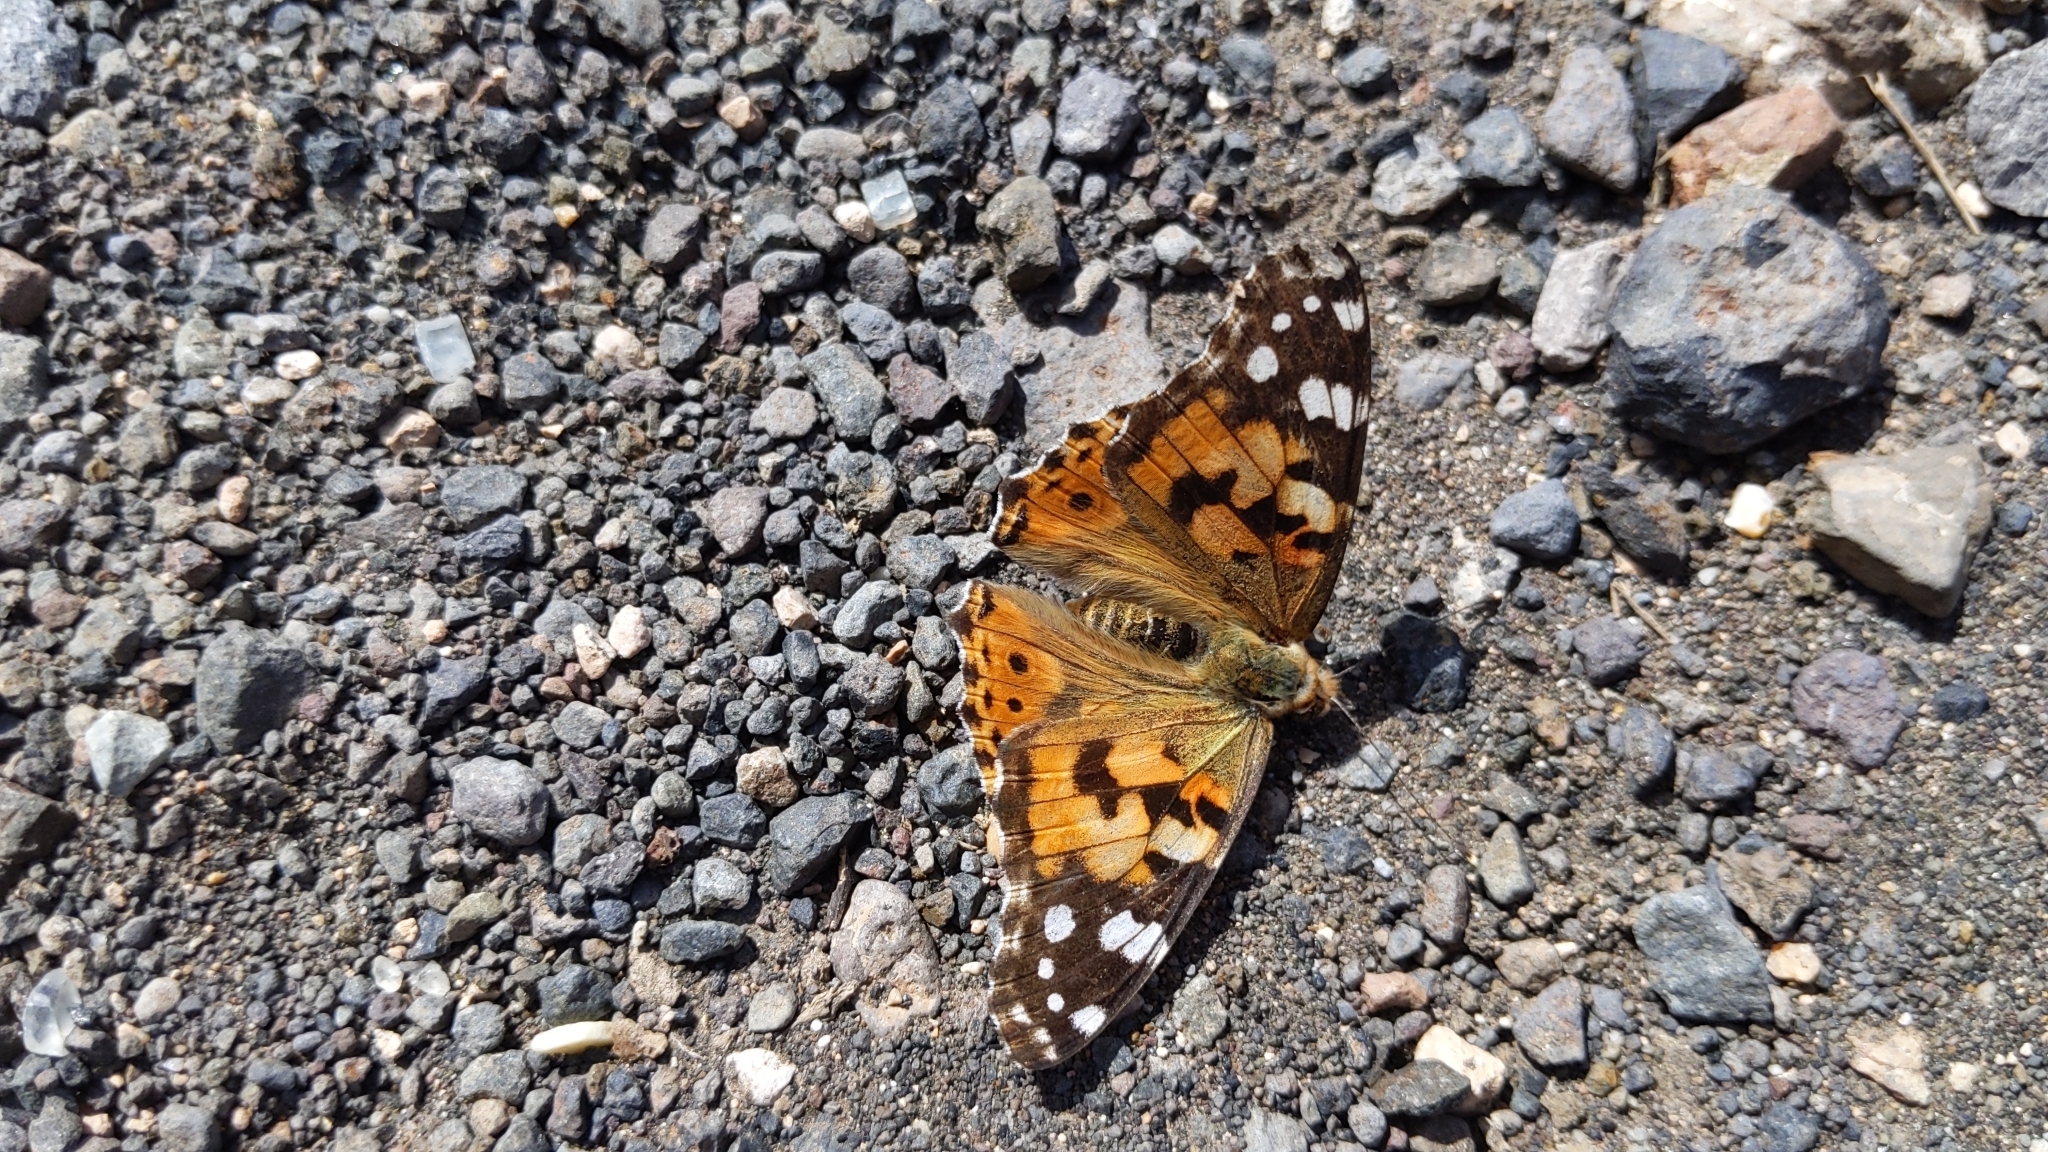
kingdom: Animalia
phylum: Arthropoda
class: Insecta
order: Lepidoptera
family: Nymphalidae
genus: Vanessa
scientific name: Vanessa cardui
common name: Painted lady
